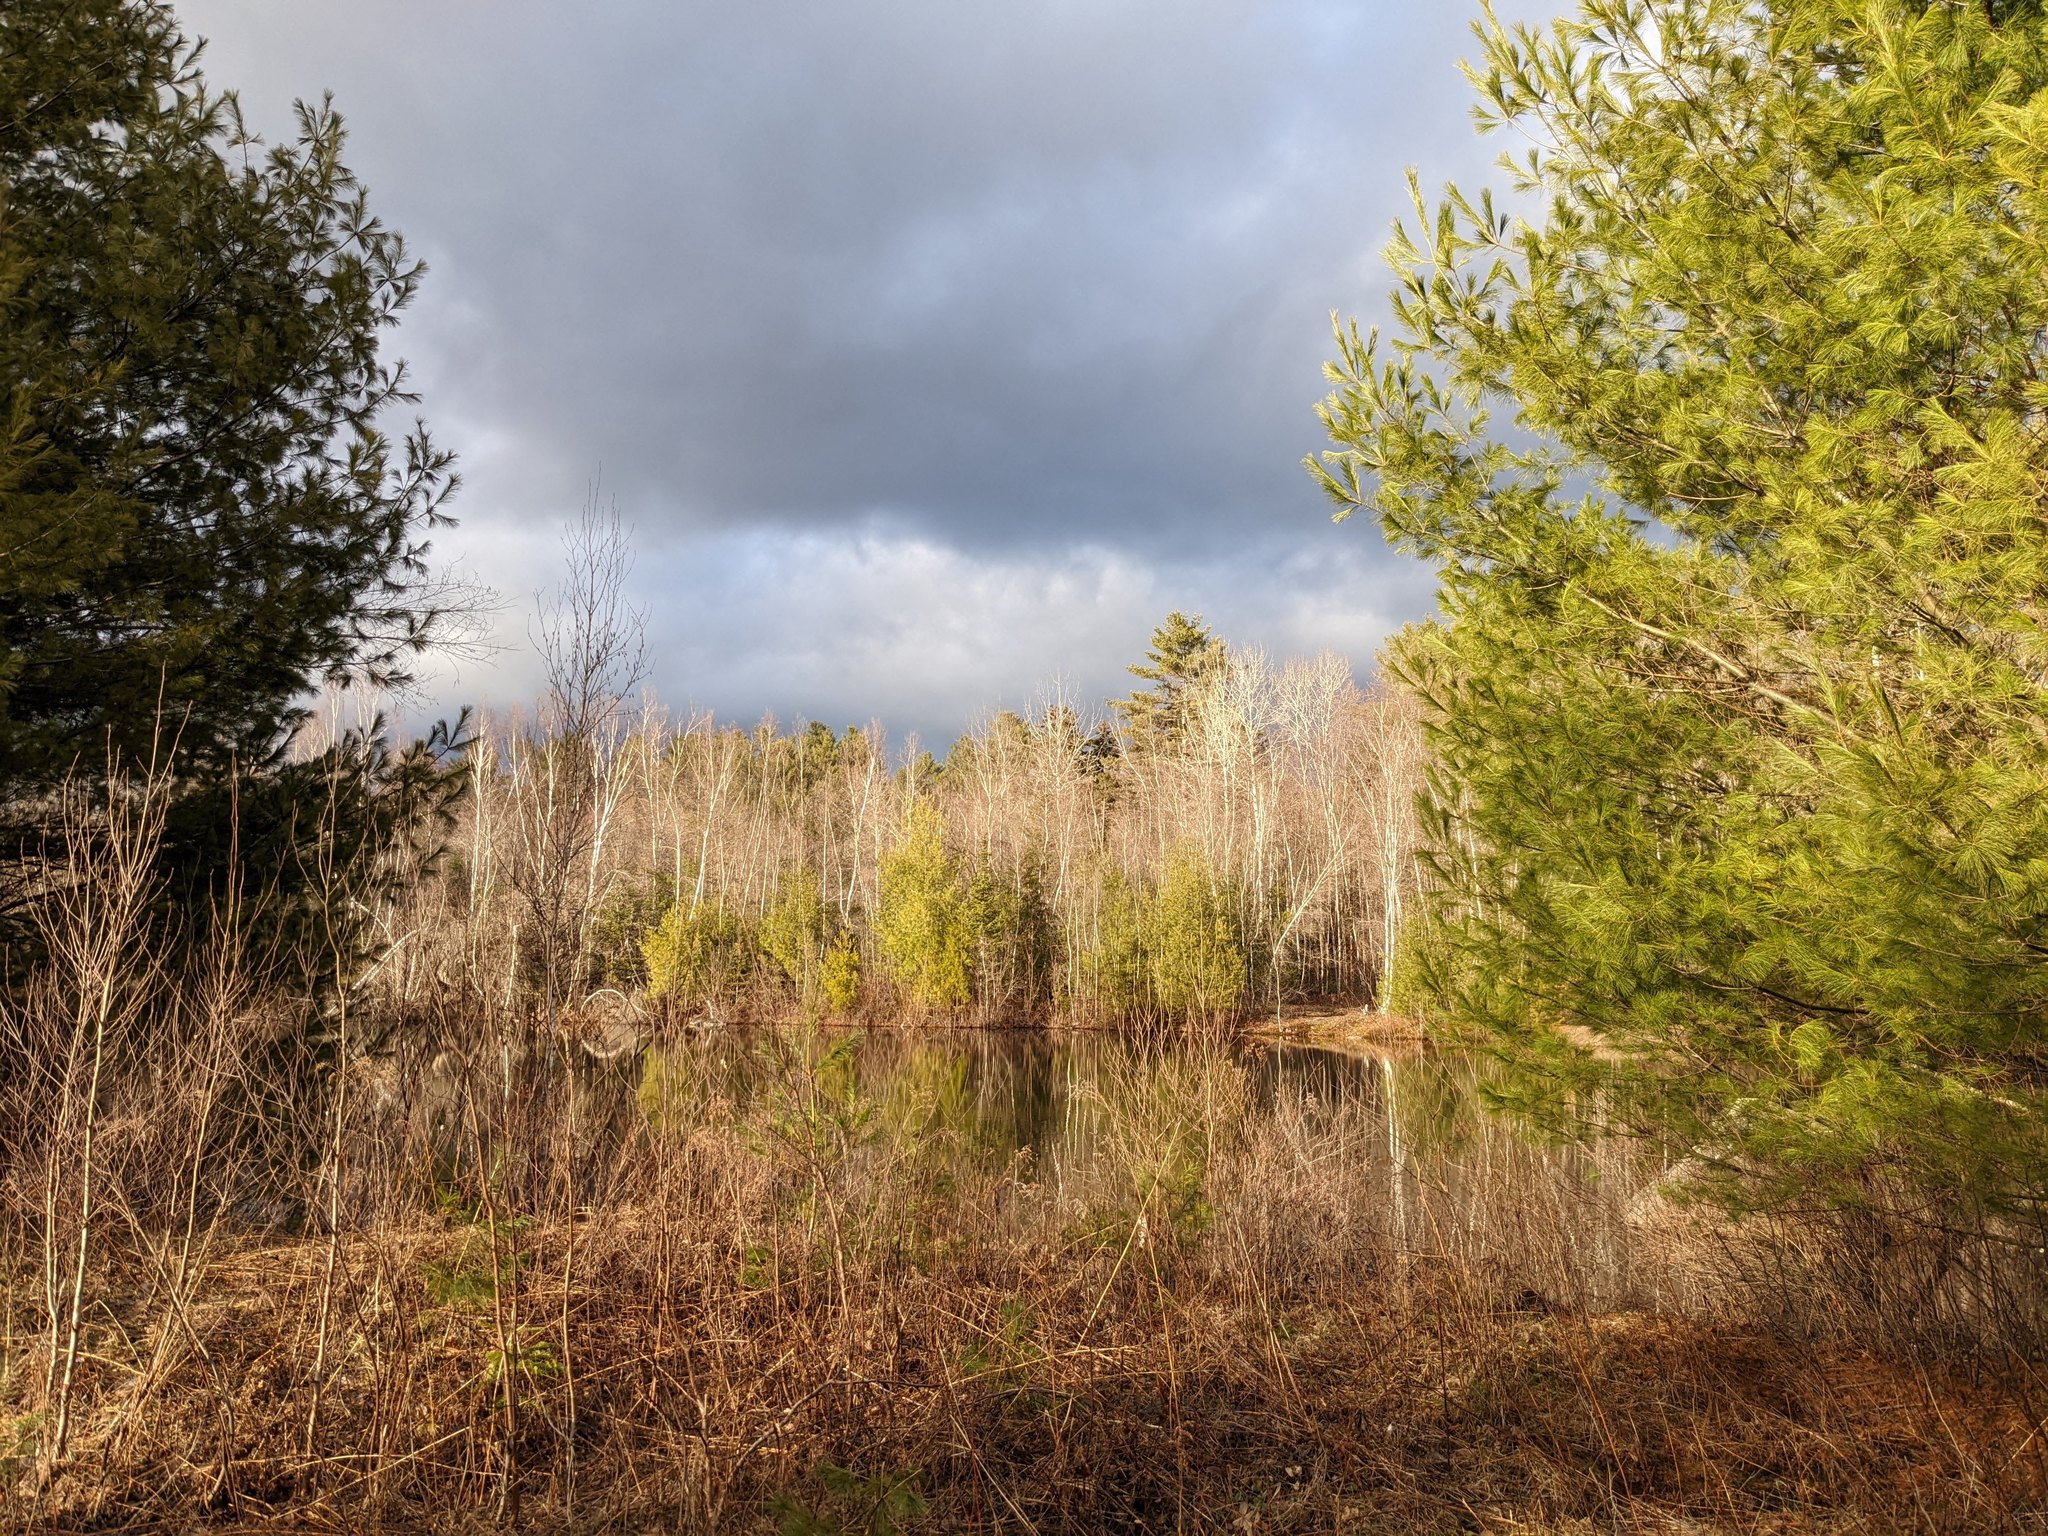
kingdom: Plantae
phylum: Tracheophyta
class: Pinopsida
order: Pinales
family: Pinaceae
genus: Pinus
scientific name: Pinus strobus
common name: Weymouth pine
